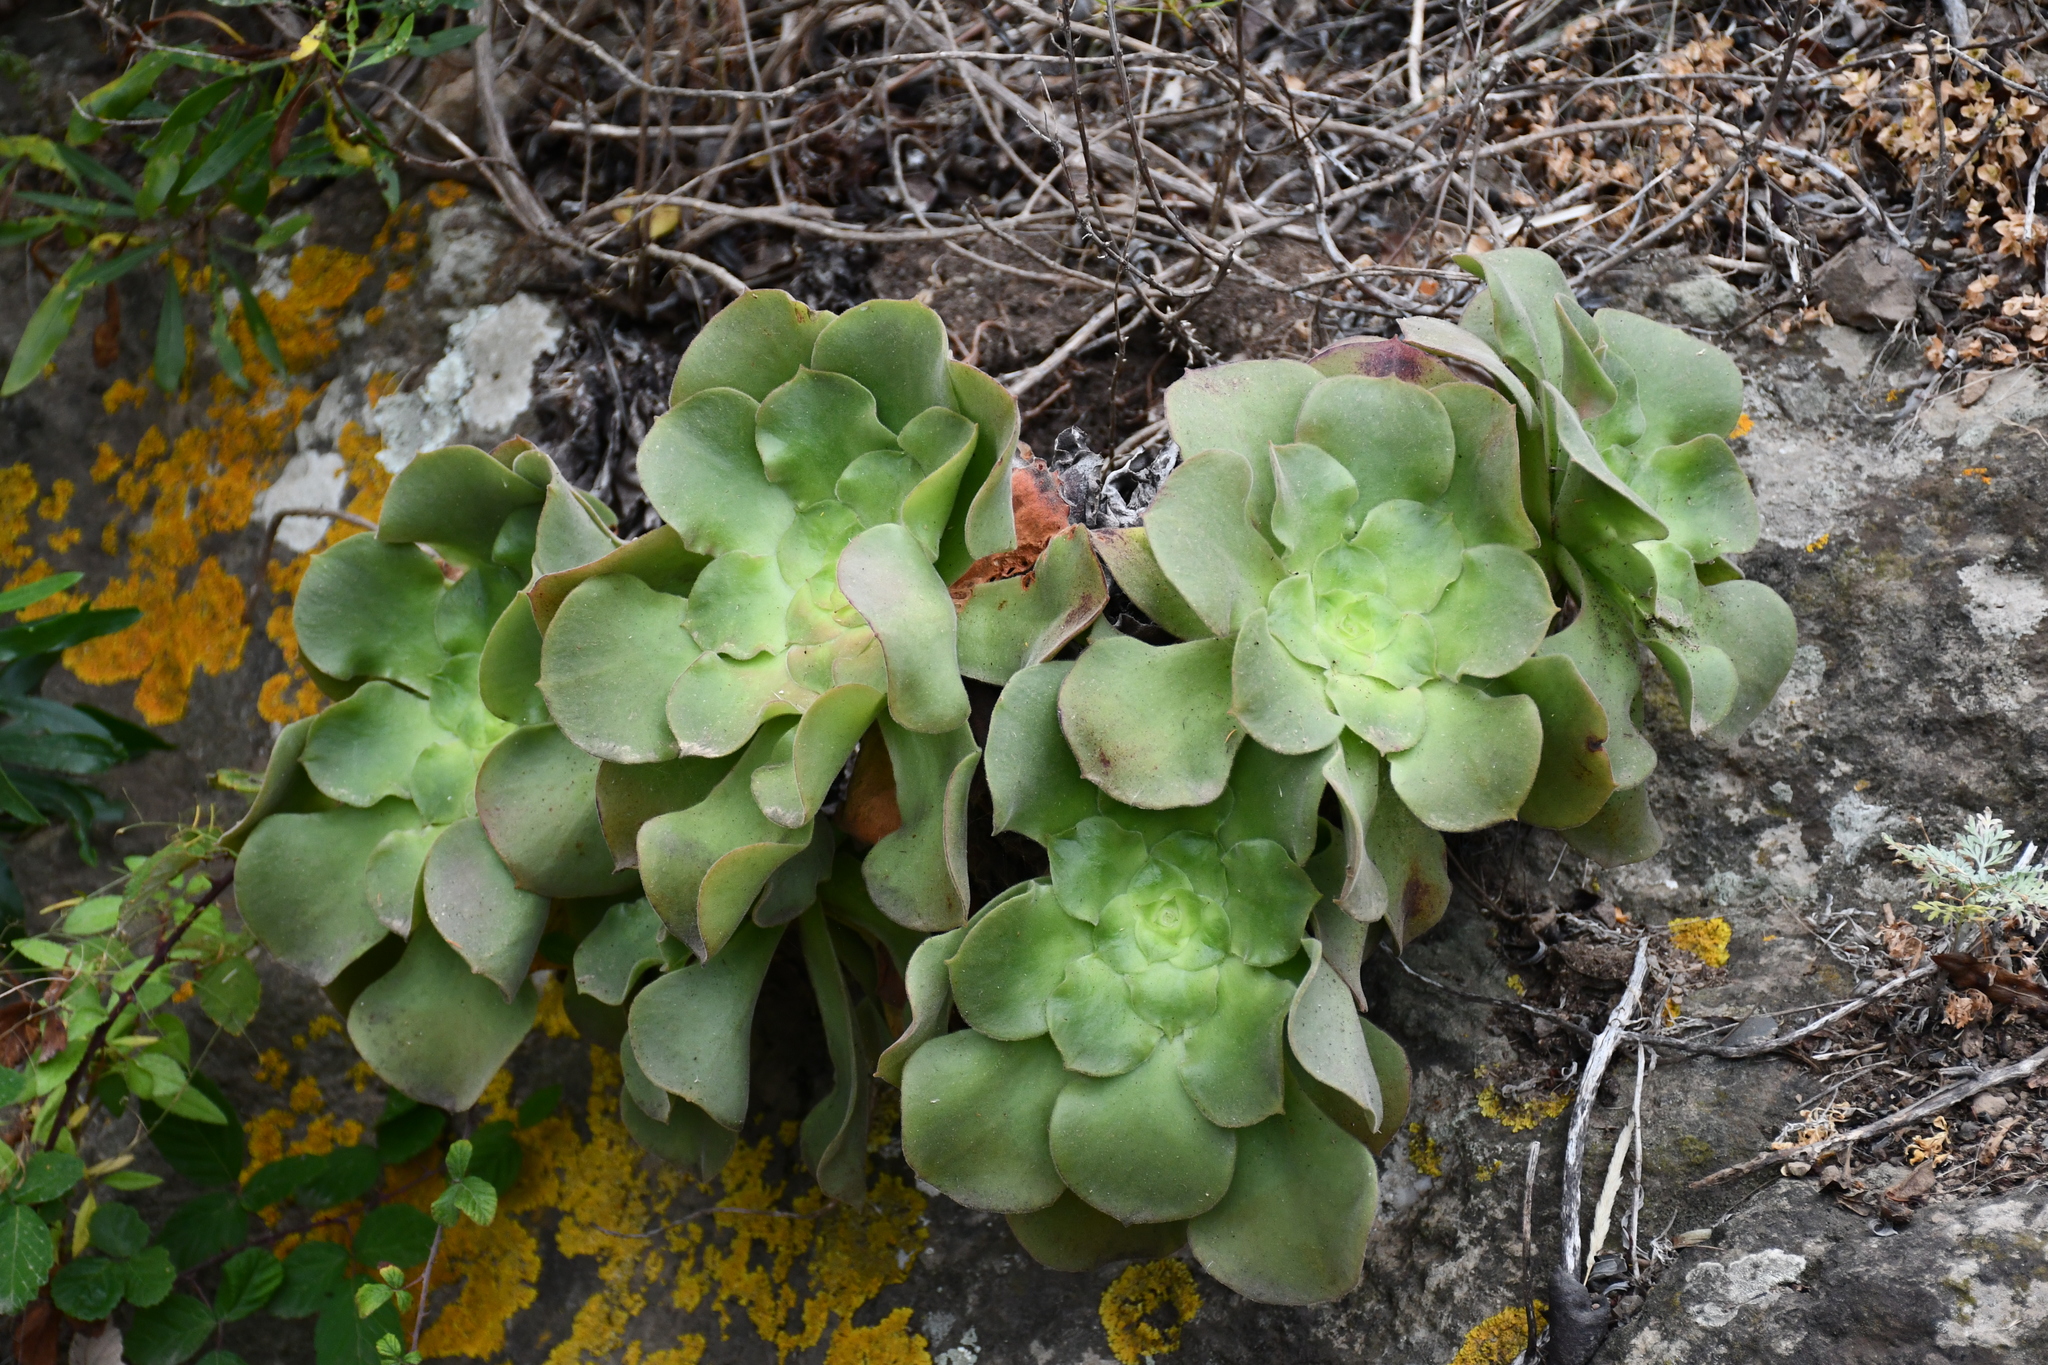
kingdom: Plantae
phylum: Tracheophyta
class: Magnoliopsida
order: Saxifragales
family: Crassulaceae
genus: Aeonium
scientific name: Aeonium canariense
